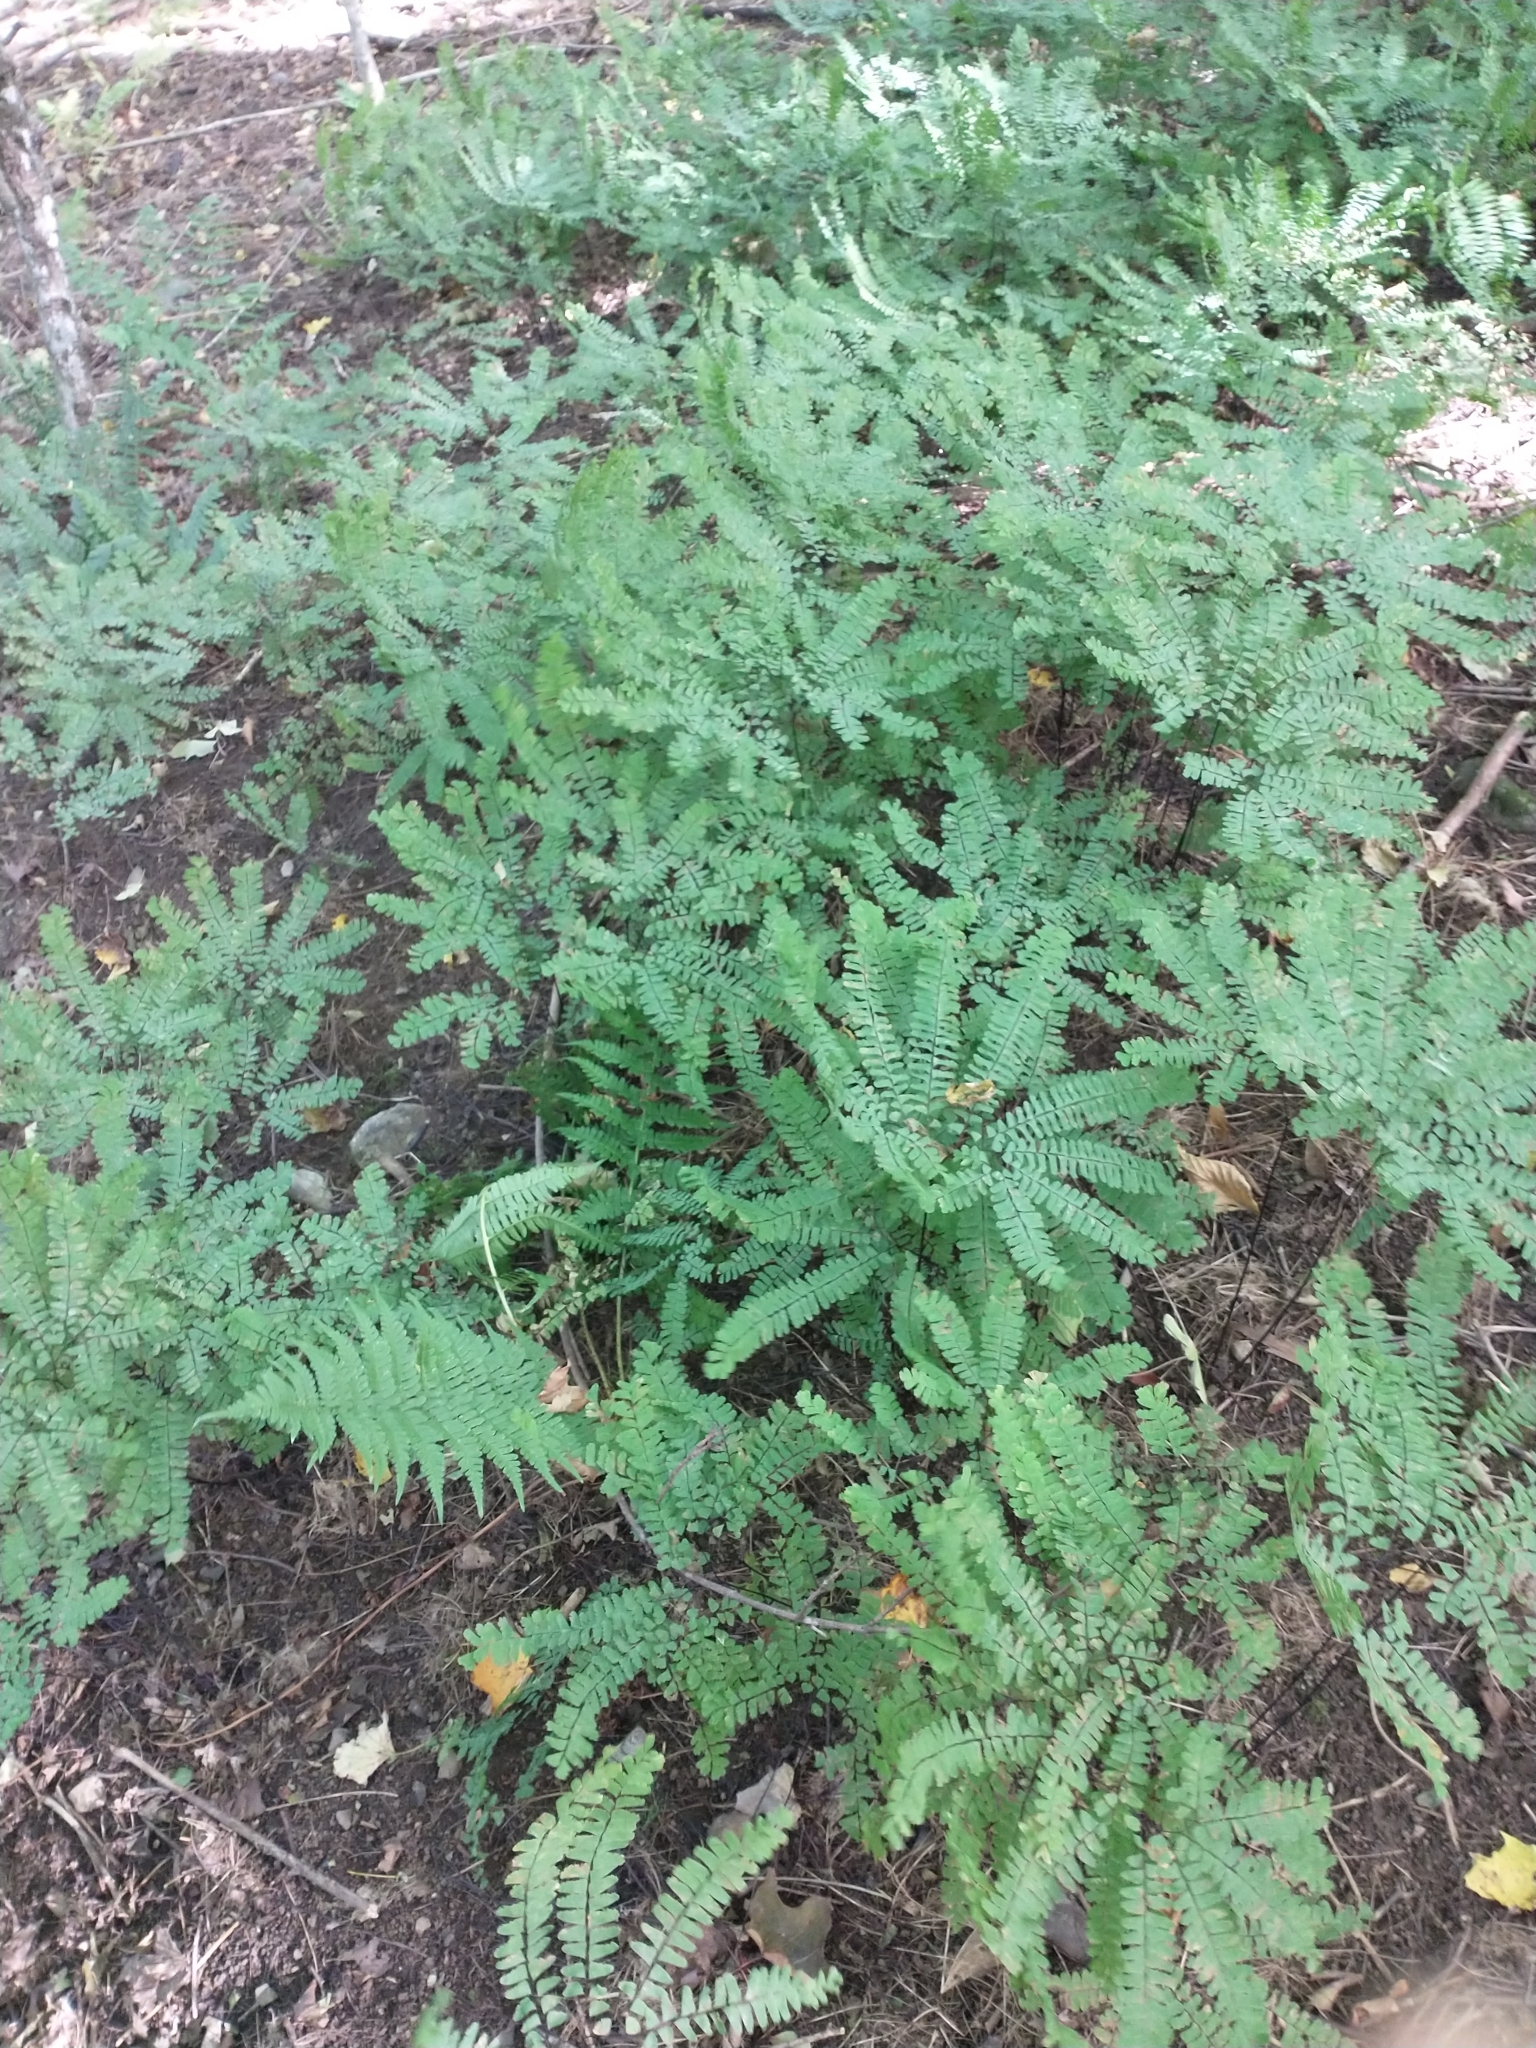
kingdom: Plantae
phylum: Tracheophyta
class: Polypodiopsida
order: Polypodiales
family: Pteridaceae
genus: Adiantum
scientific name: Adiantum pedatum
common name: Five-finger fern
